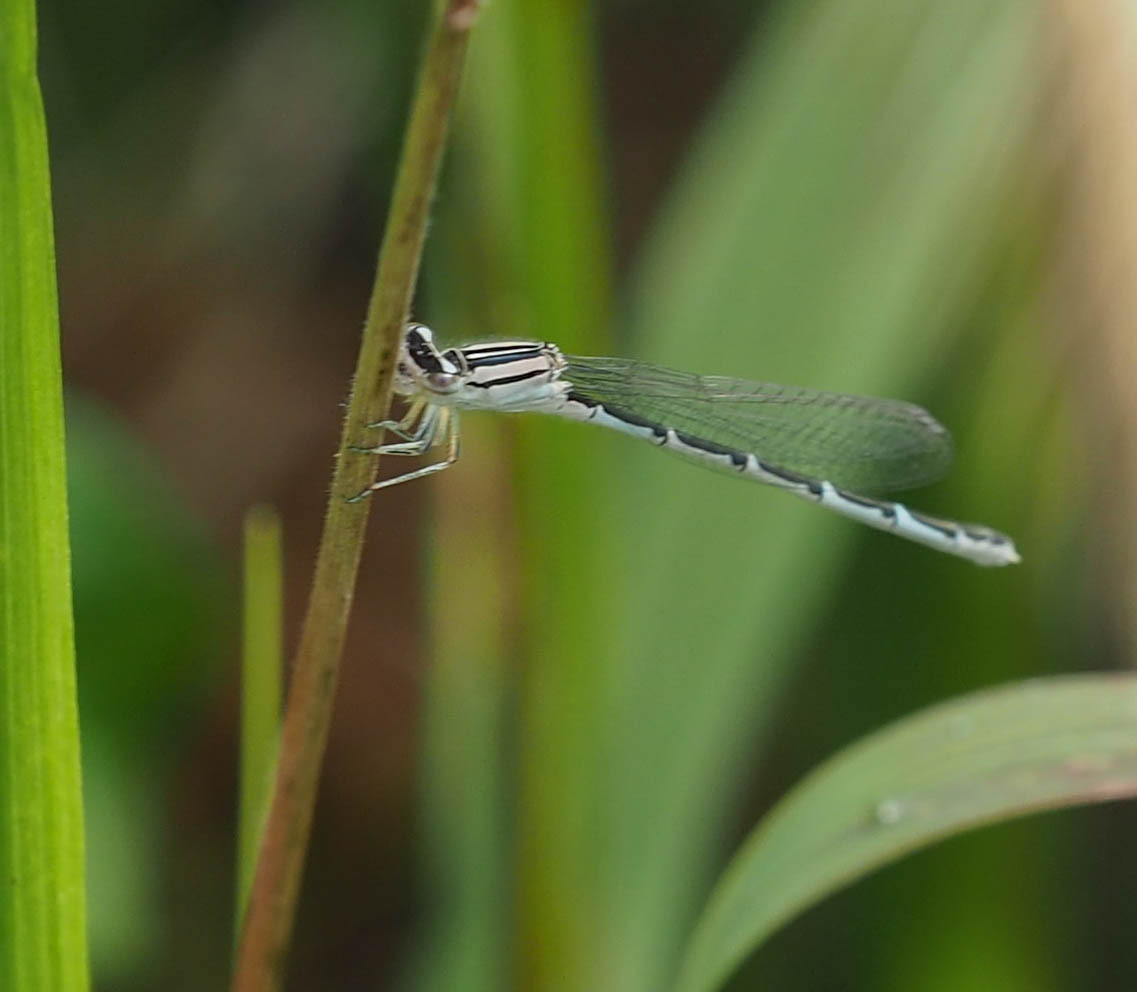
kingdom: Animalia
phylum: Arthropoda
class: Insecta
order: Odonata
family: Coenagrionidae
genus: Enallagma
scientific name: Enallagma durum
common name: Big bluet
